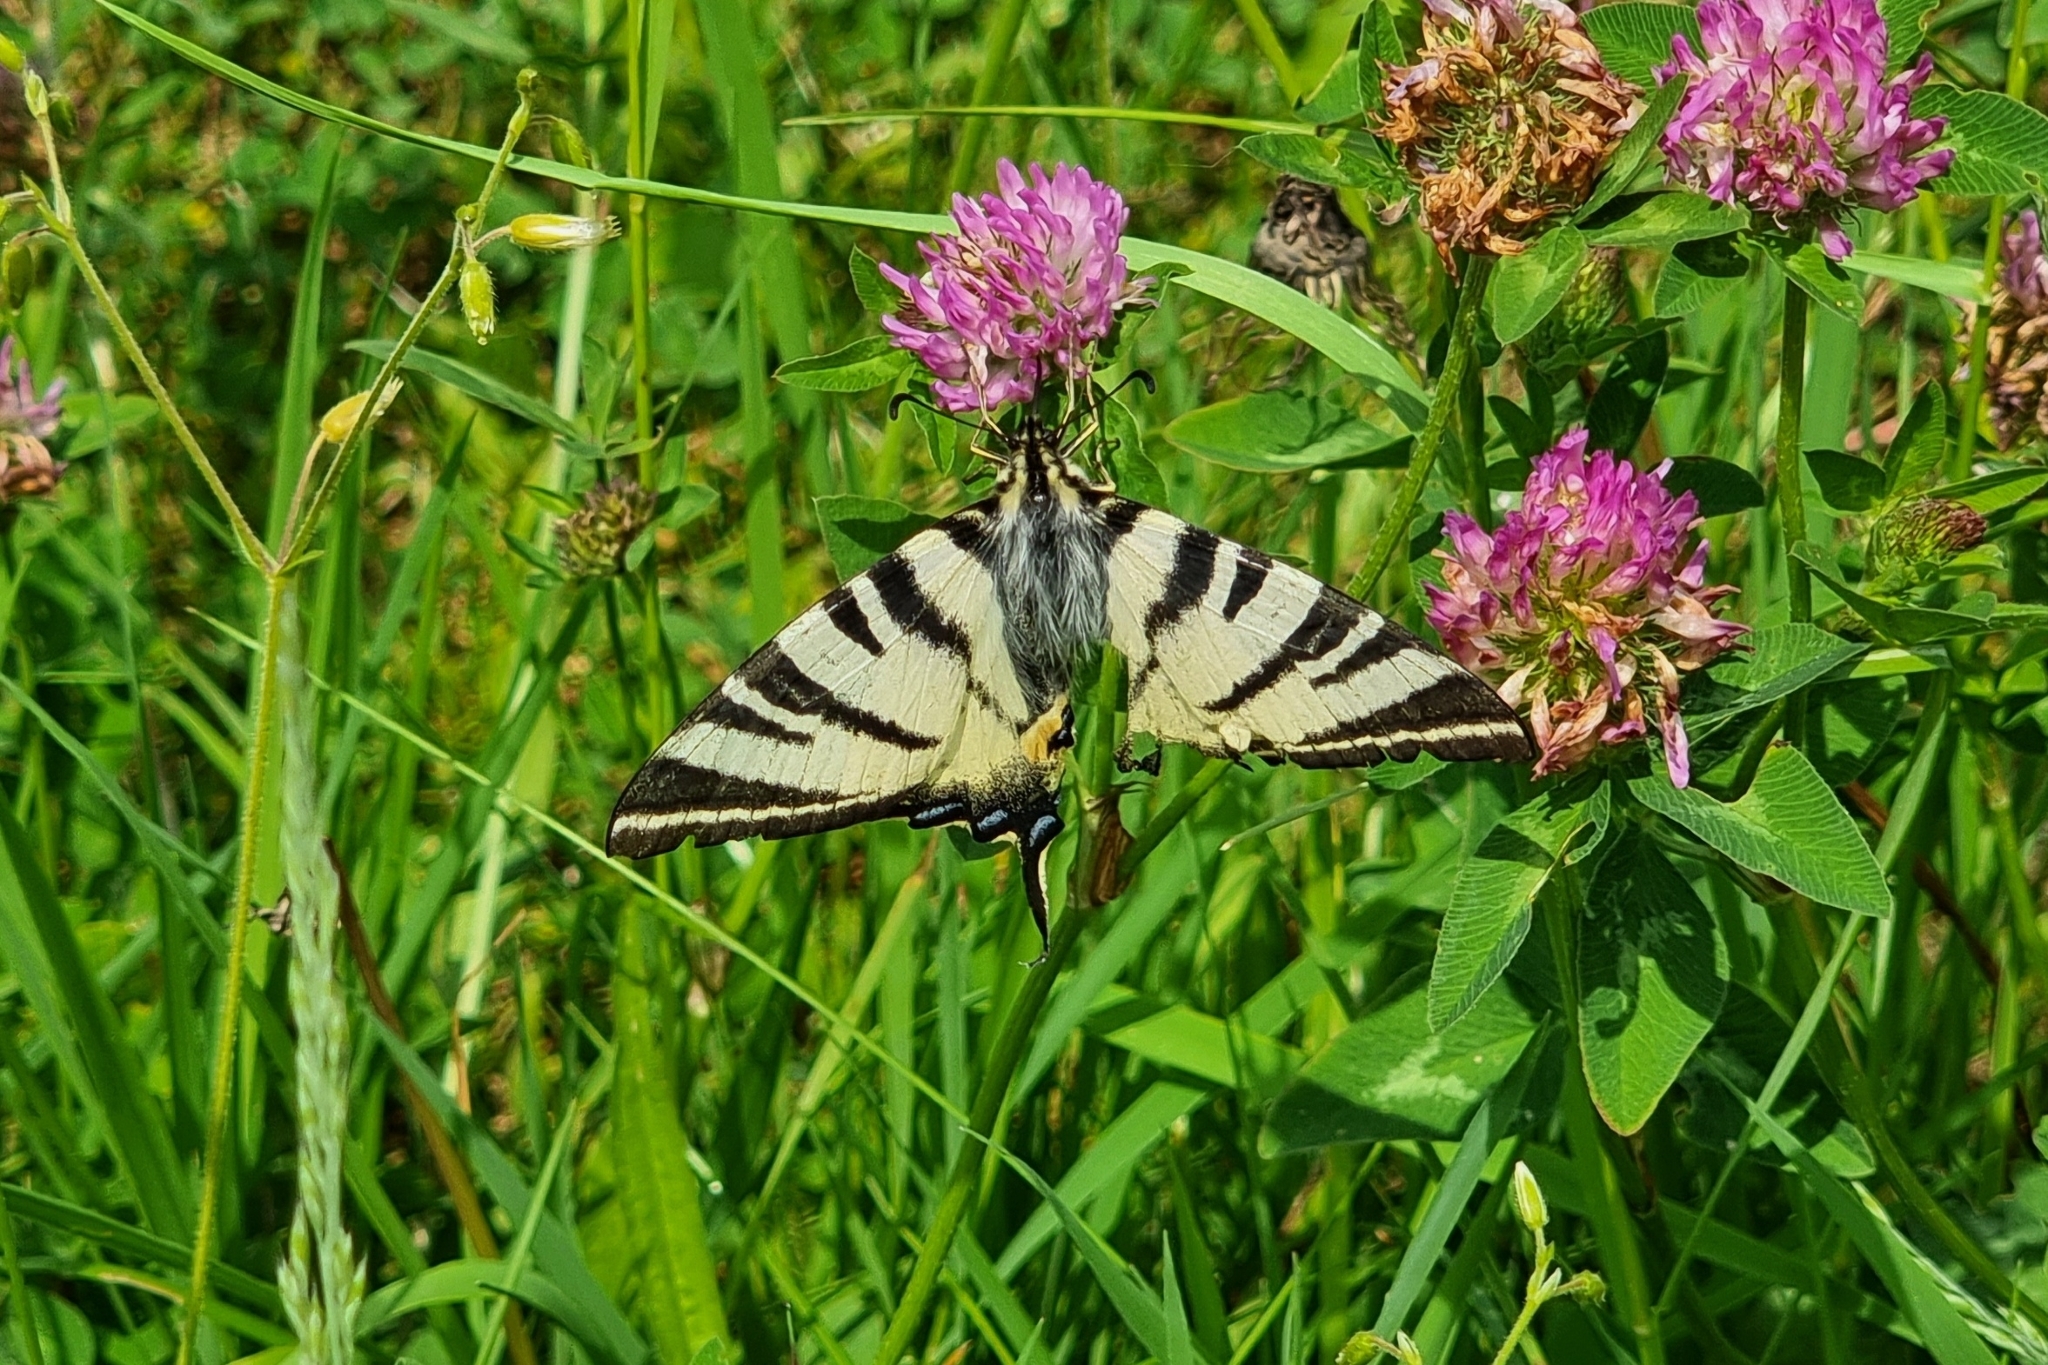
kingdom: Animalia
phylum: Arthropoda
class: Insecta
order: Lepidoptera
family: Papilionidae
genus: Iphiclides
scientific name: Iphiclides podalirius
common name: Scarce swallowtail
